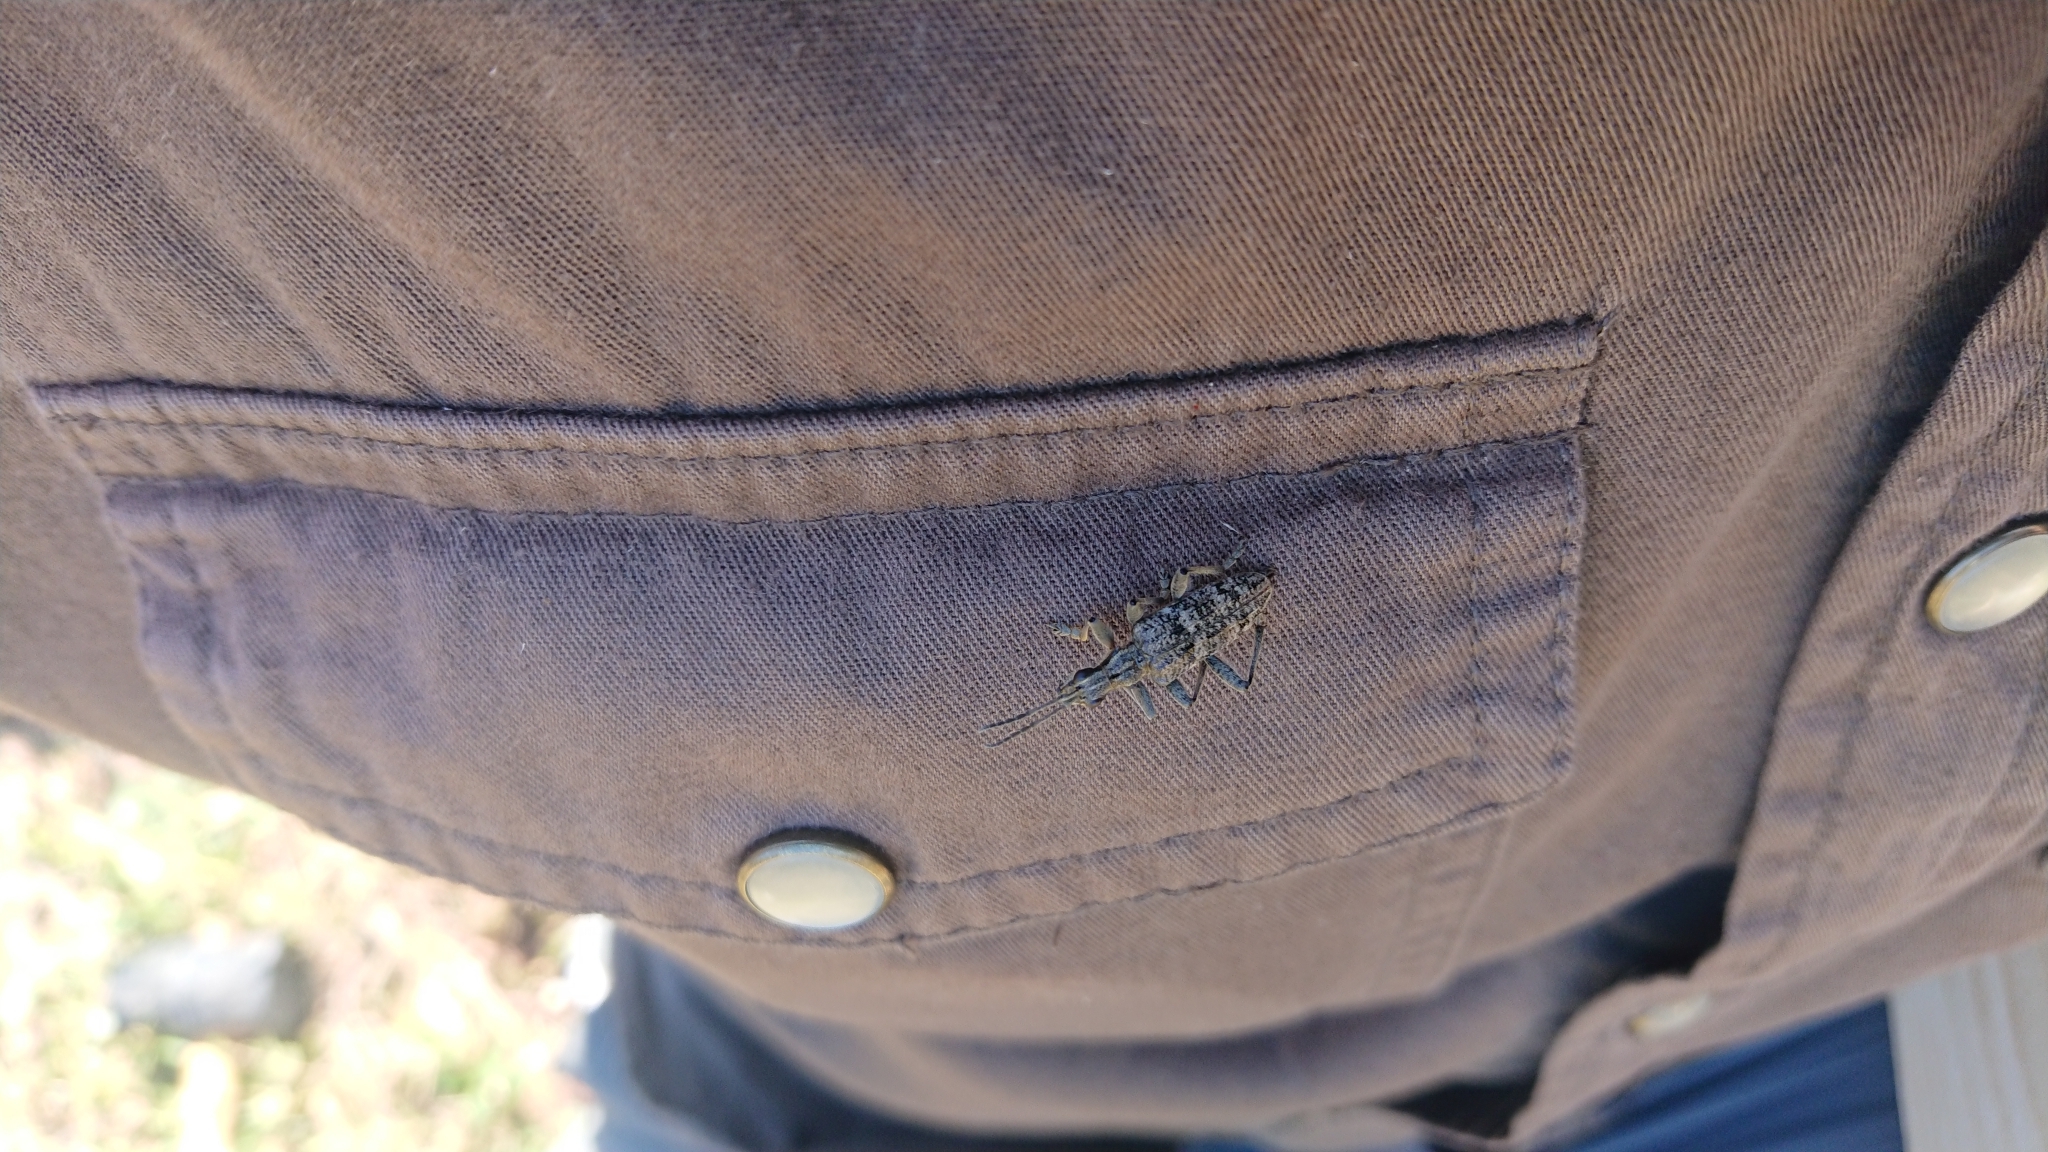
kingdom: Animalia
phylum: Arthropoda
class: Insecta
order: Coleoptera
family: Cerambycidae
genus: Rhagium
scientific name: Rhagium inquisitor
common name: Ribbed pine borer
